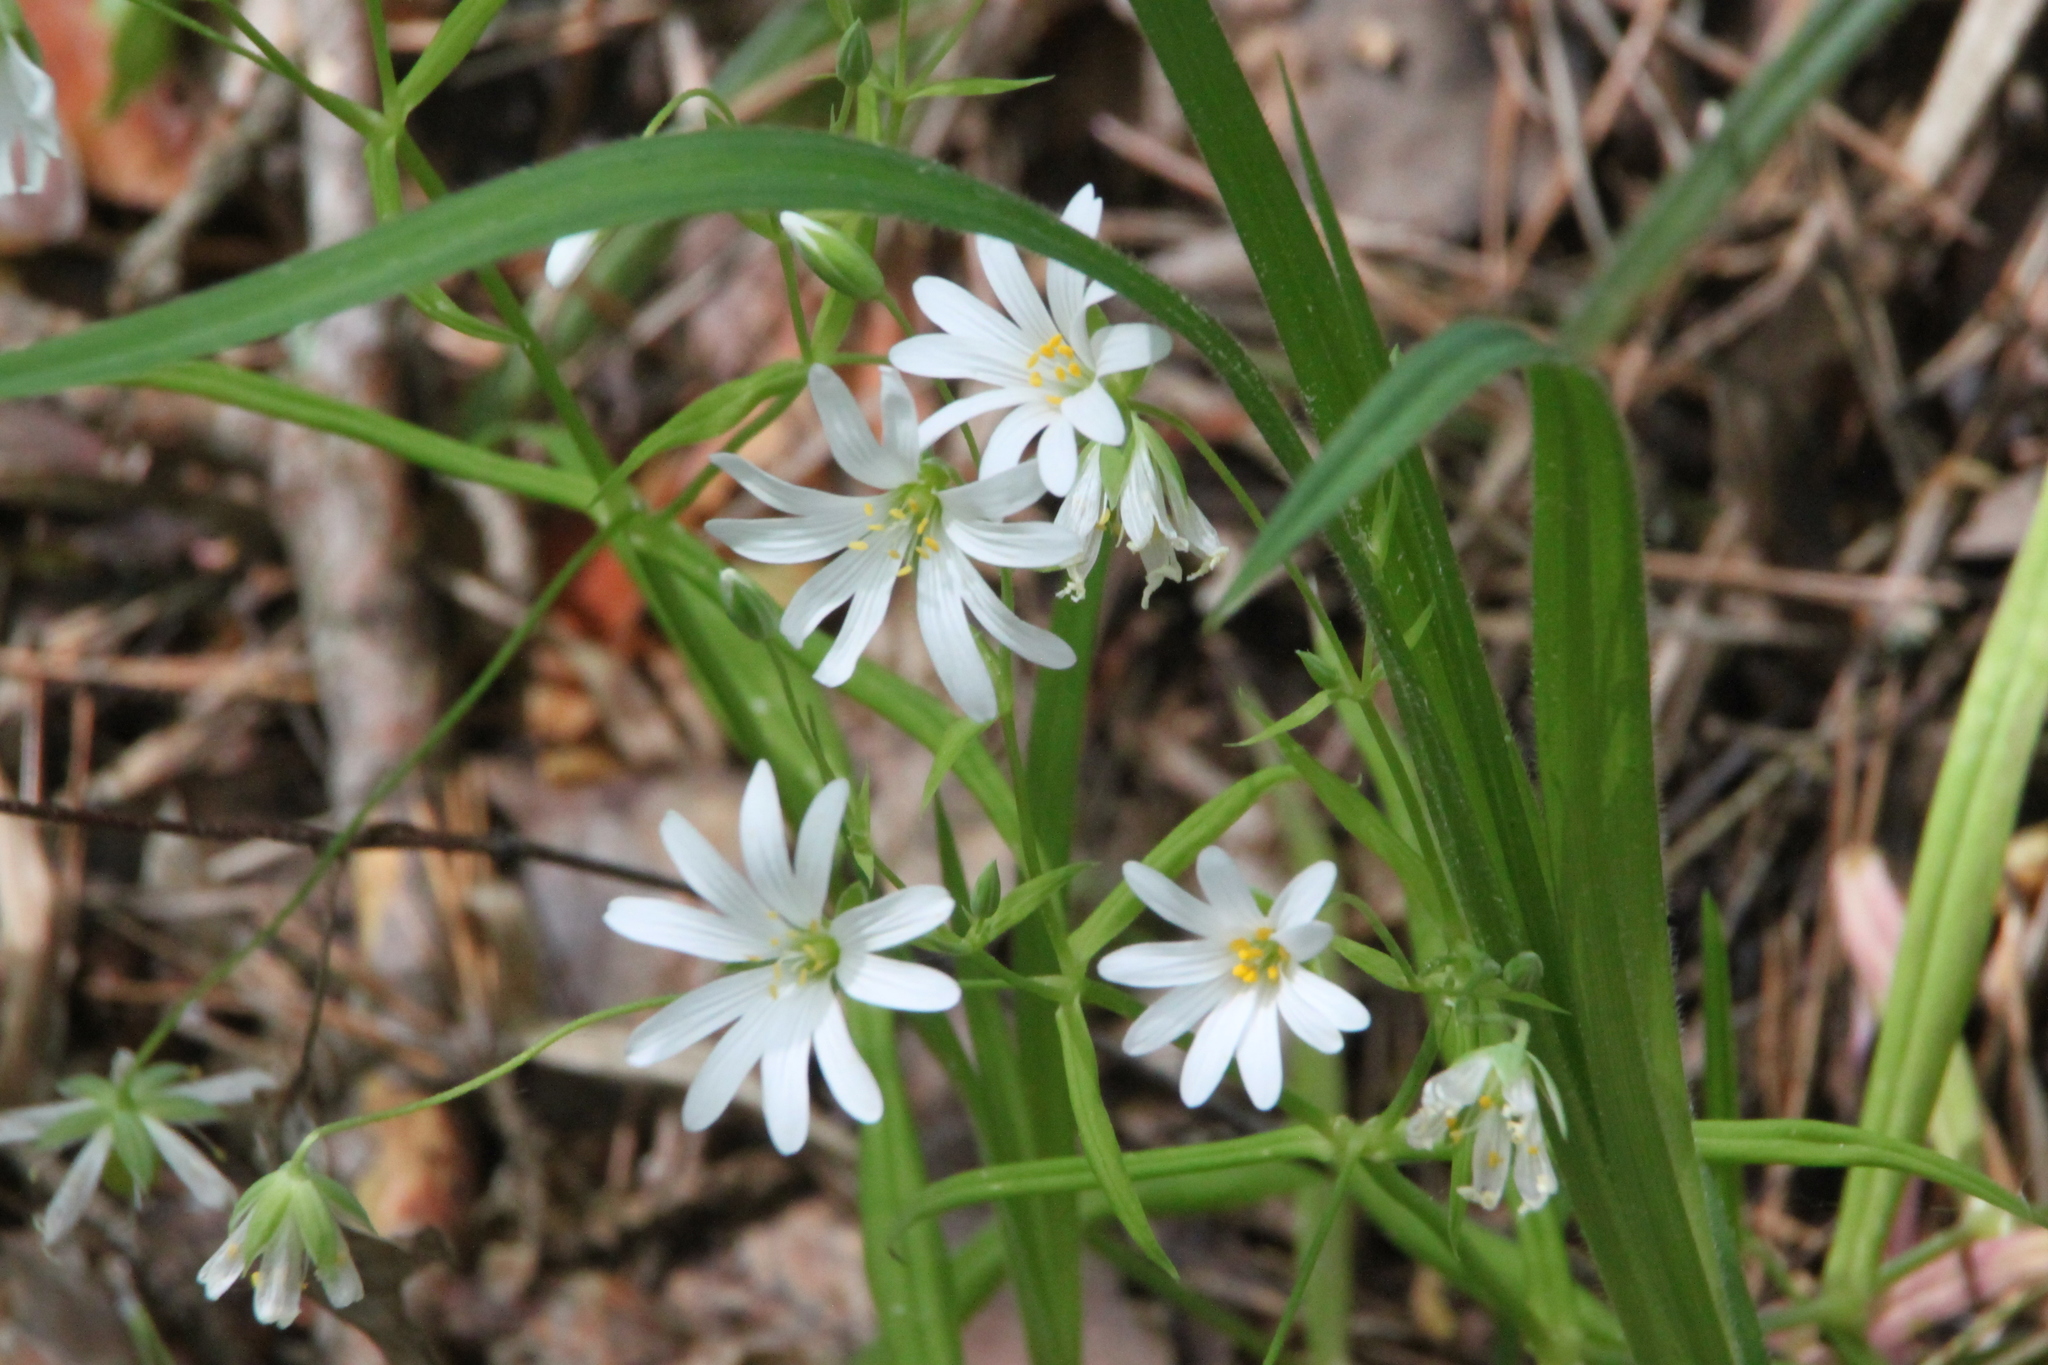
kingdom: Plantae
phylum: Tracheophyta
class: Magnoliopsida
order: Caryophyllales
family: Caryophyllaceae
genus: Rabelera
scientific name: Rabelera holostea
